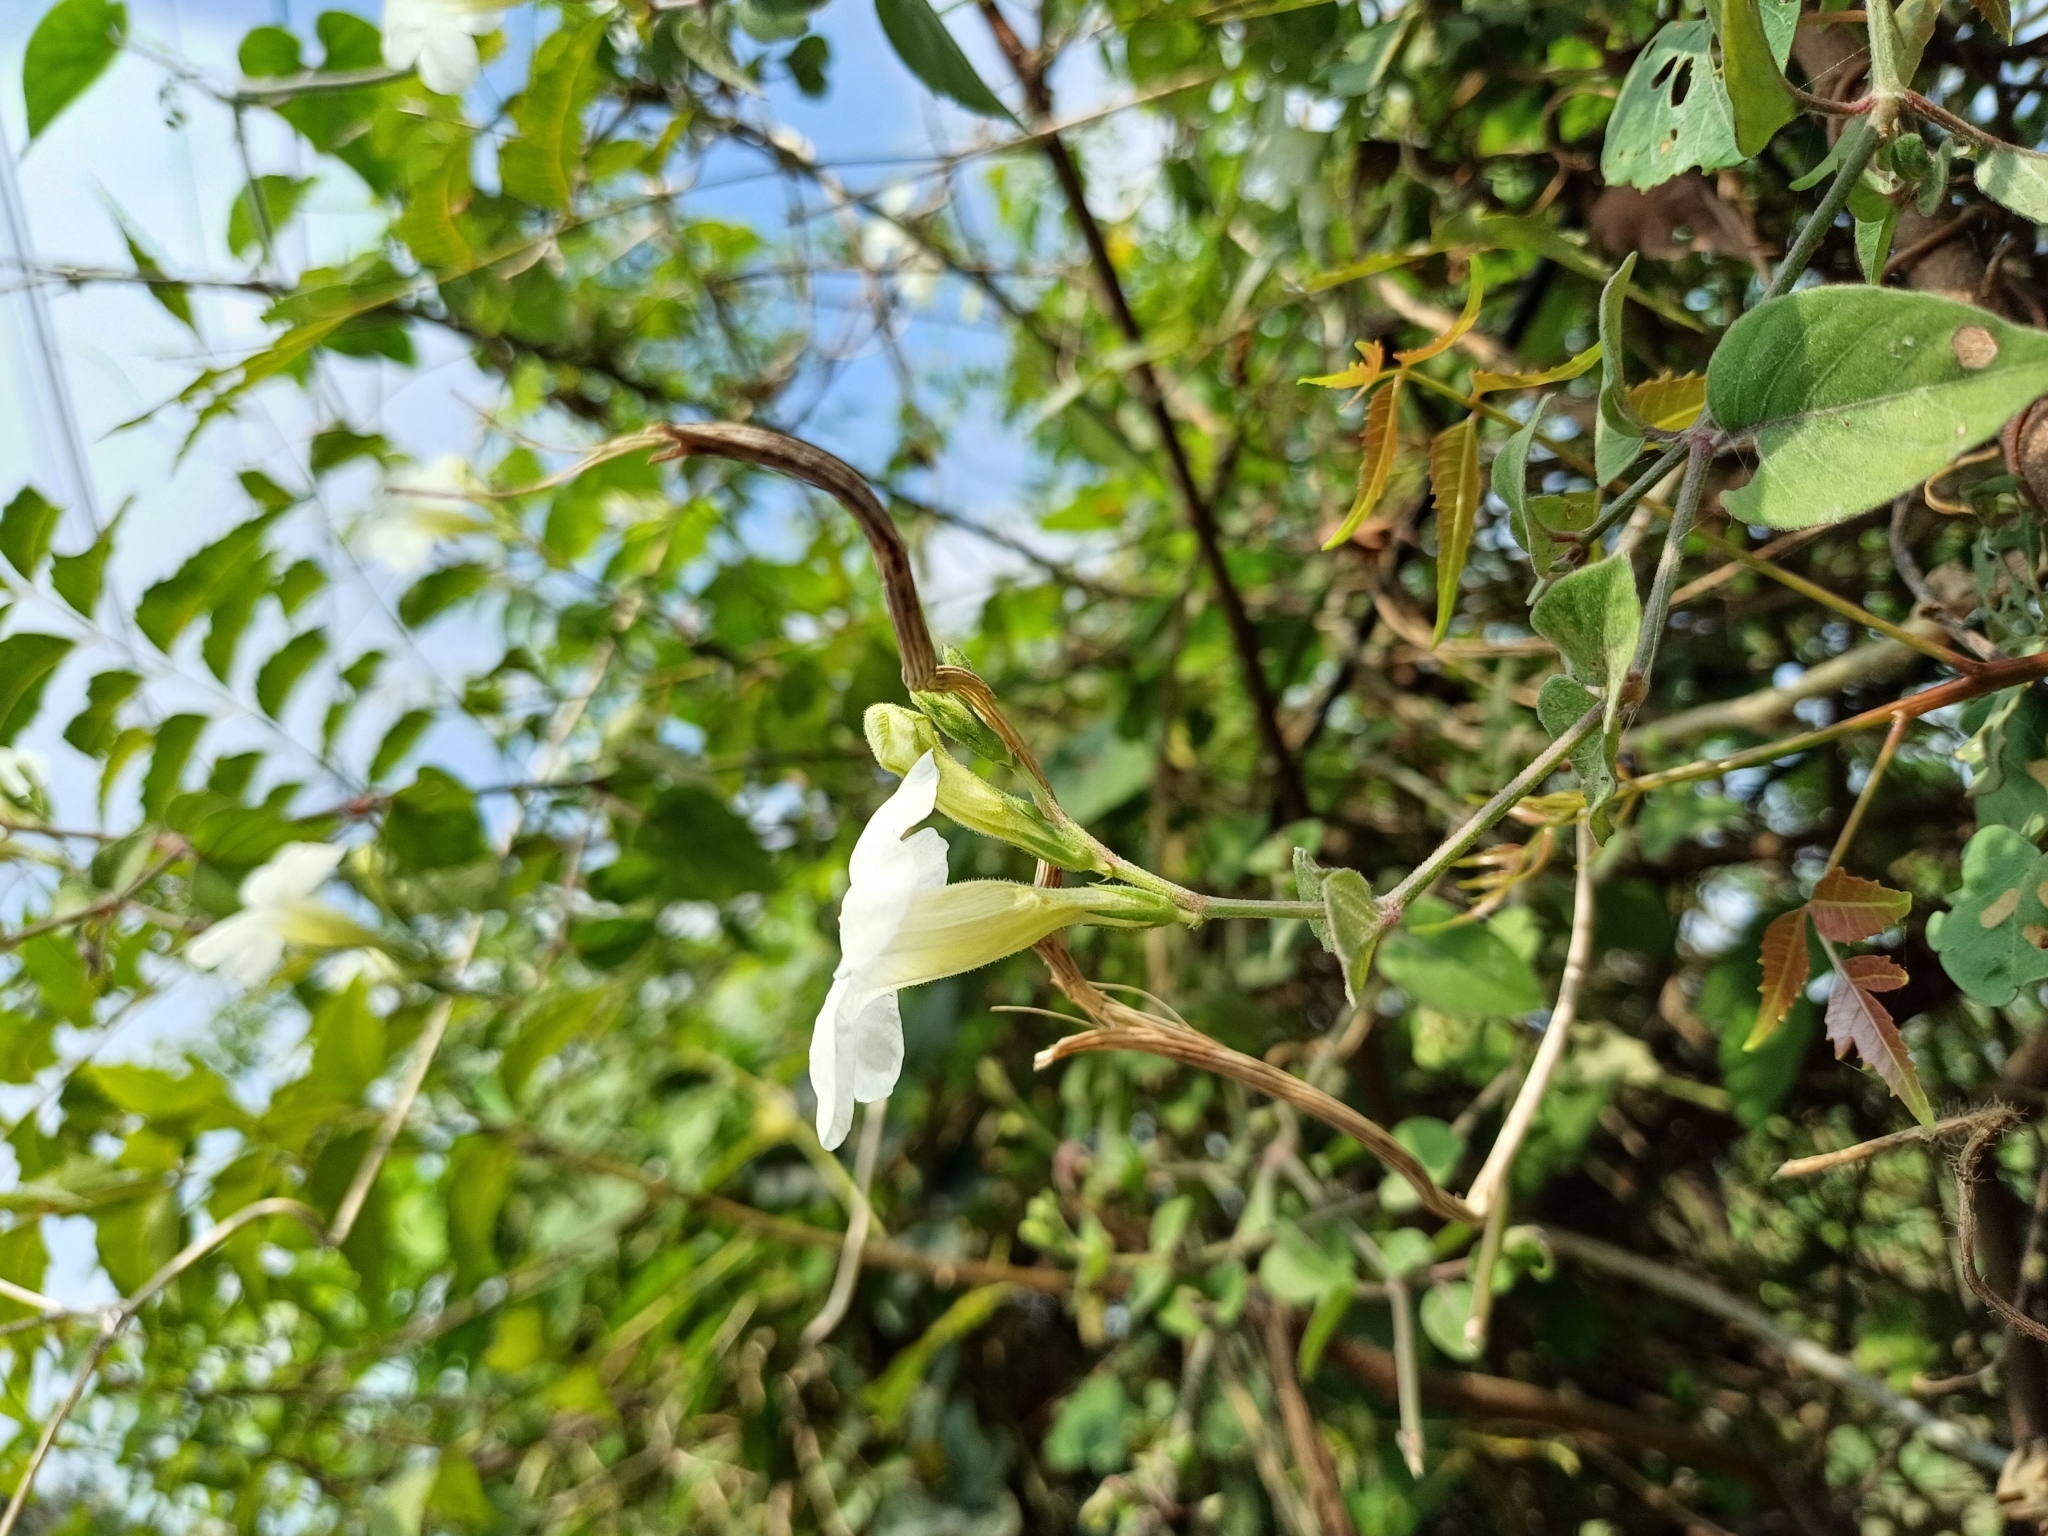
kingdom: Plantae
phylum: Tracheophyta
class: Magnoliopsida
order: Lamiales
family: Acanthaceae
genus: Asystasia
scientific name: Asystasia gangetica
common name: Chinese violet
